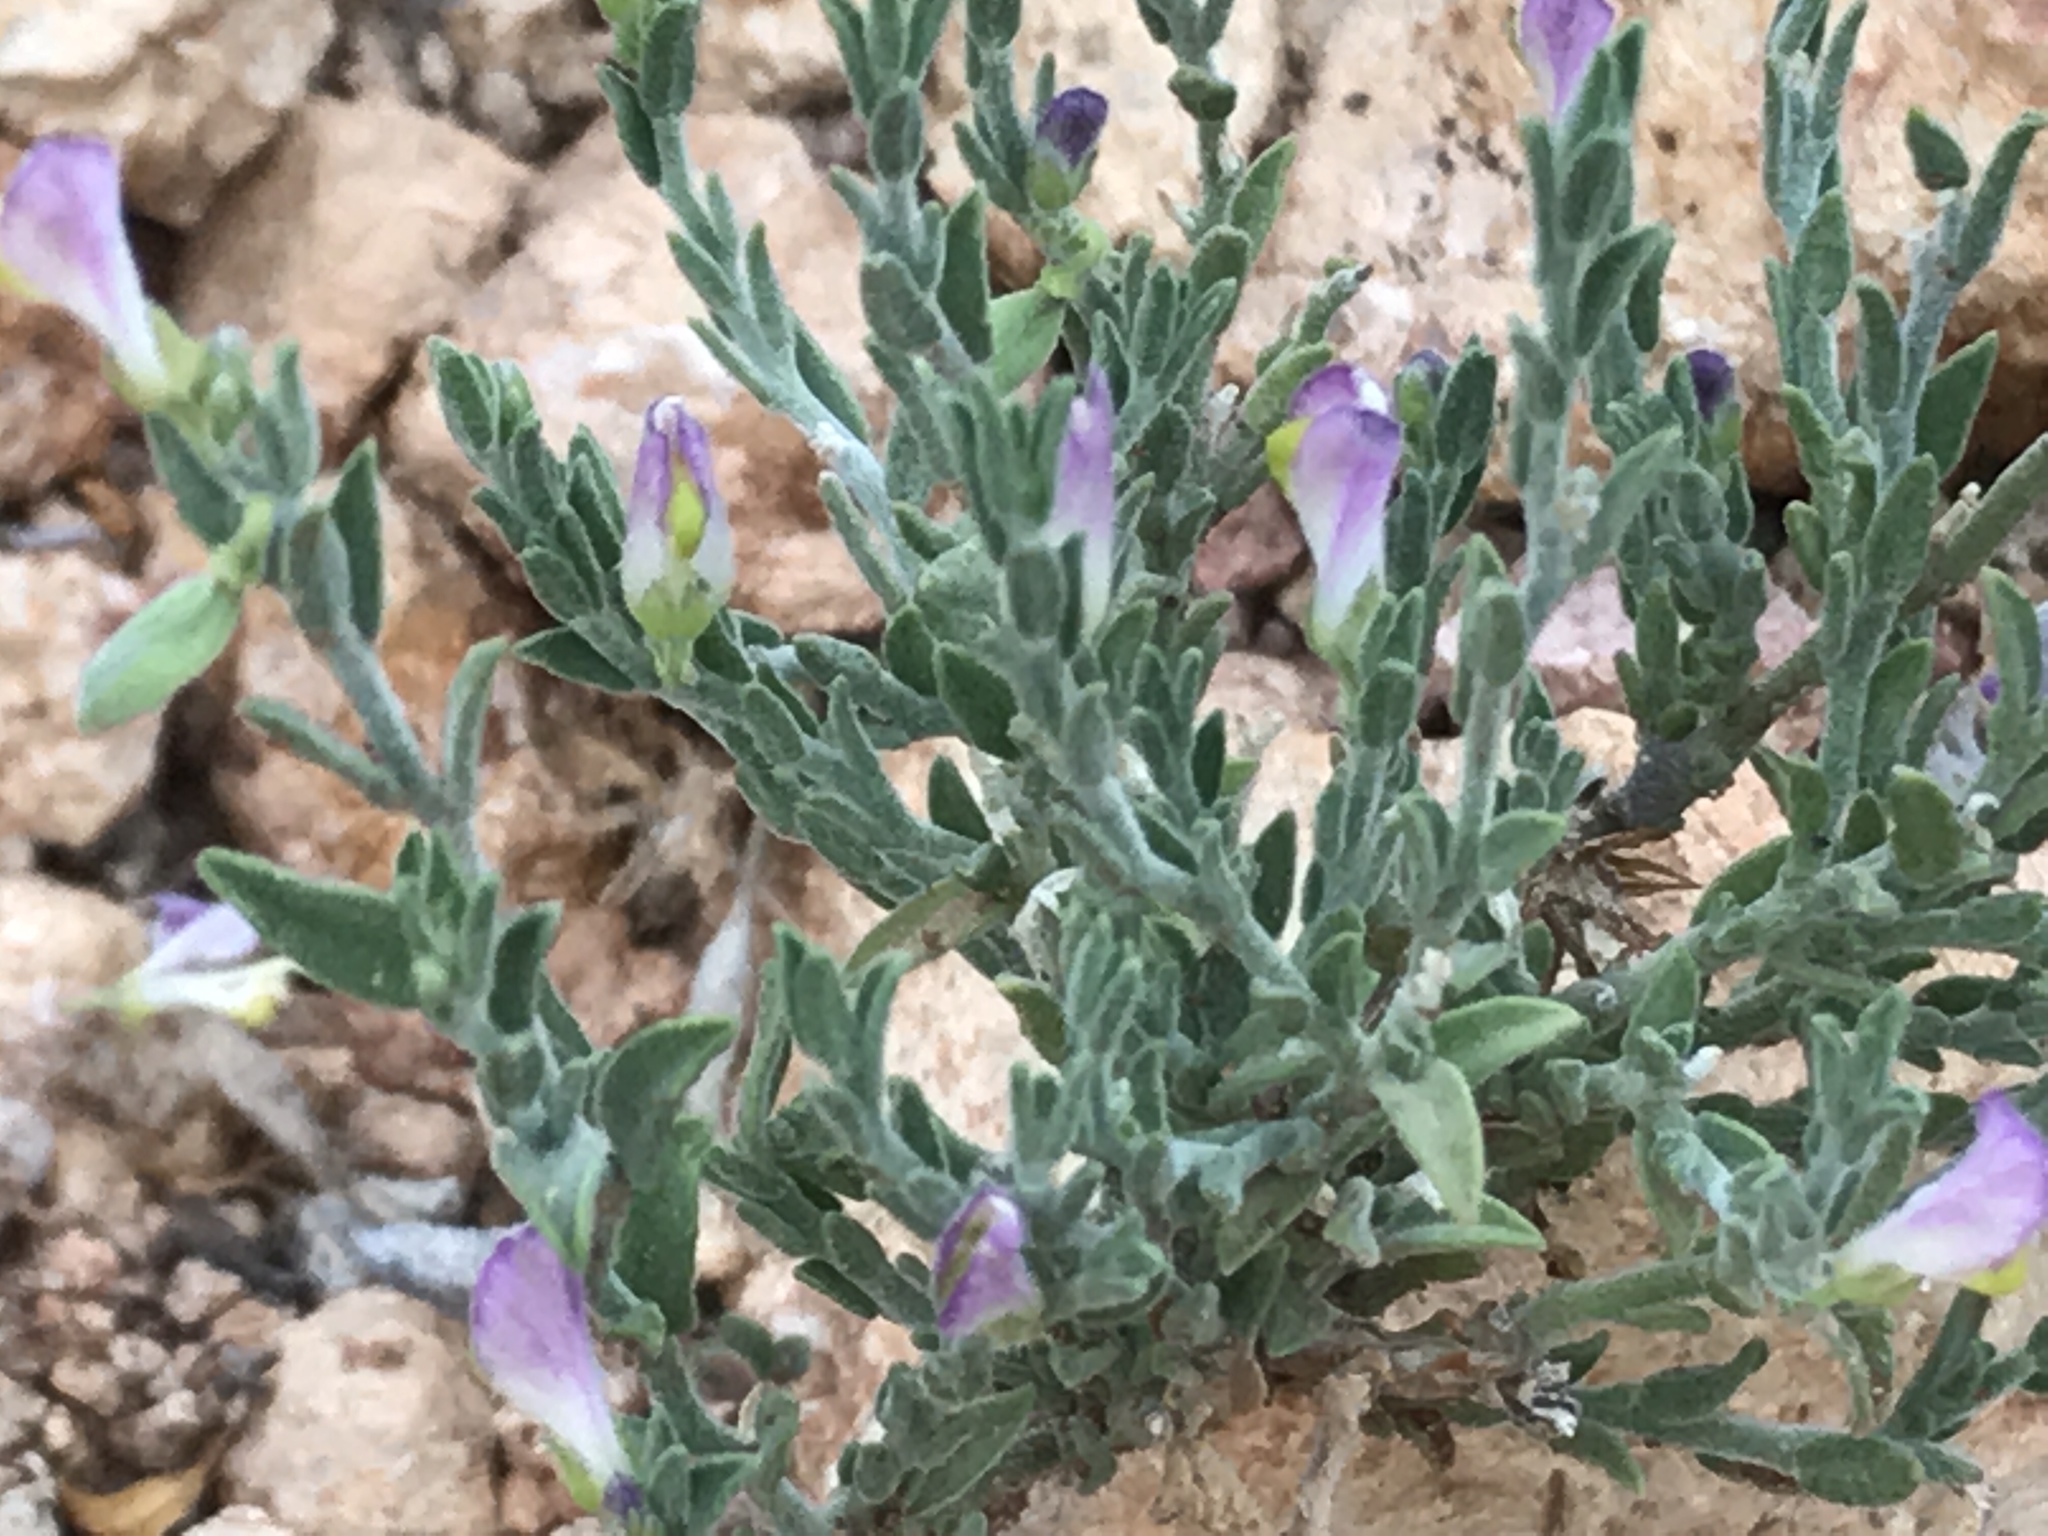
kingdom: Plantae
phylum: Tracheophyta
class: Magnoliopsida
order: Fabales
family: Polygalaceae
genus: Hebecarpa
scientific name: Hebecarpa macradenia
